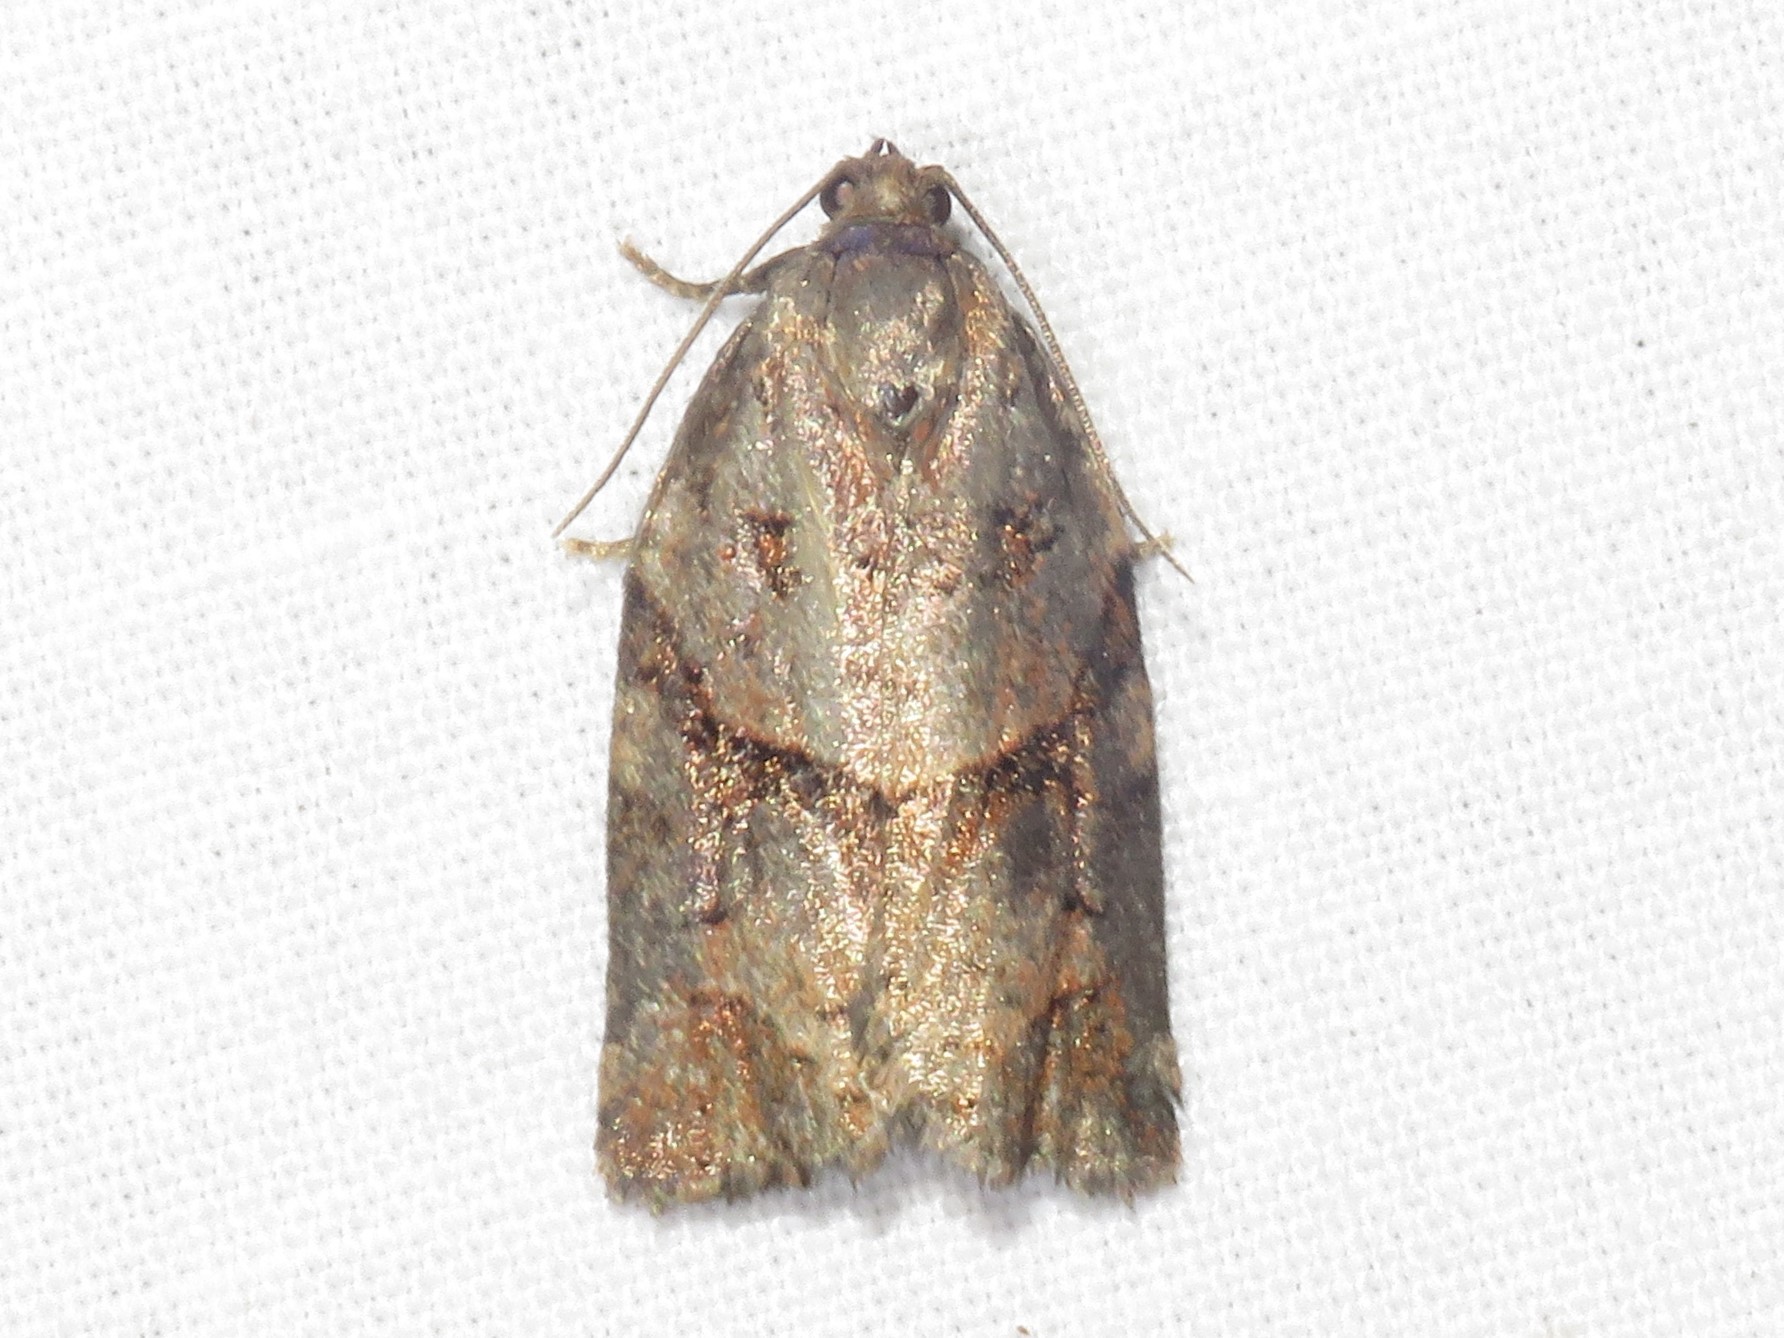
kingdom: Animalia
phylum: Arthropoda
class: Insecta
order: Lepidoptera
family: Tortricidae
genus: Archips
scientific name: Archips alberta
